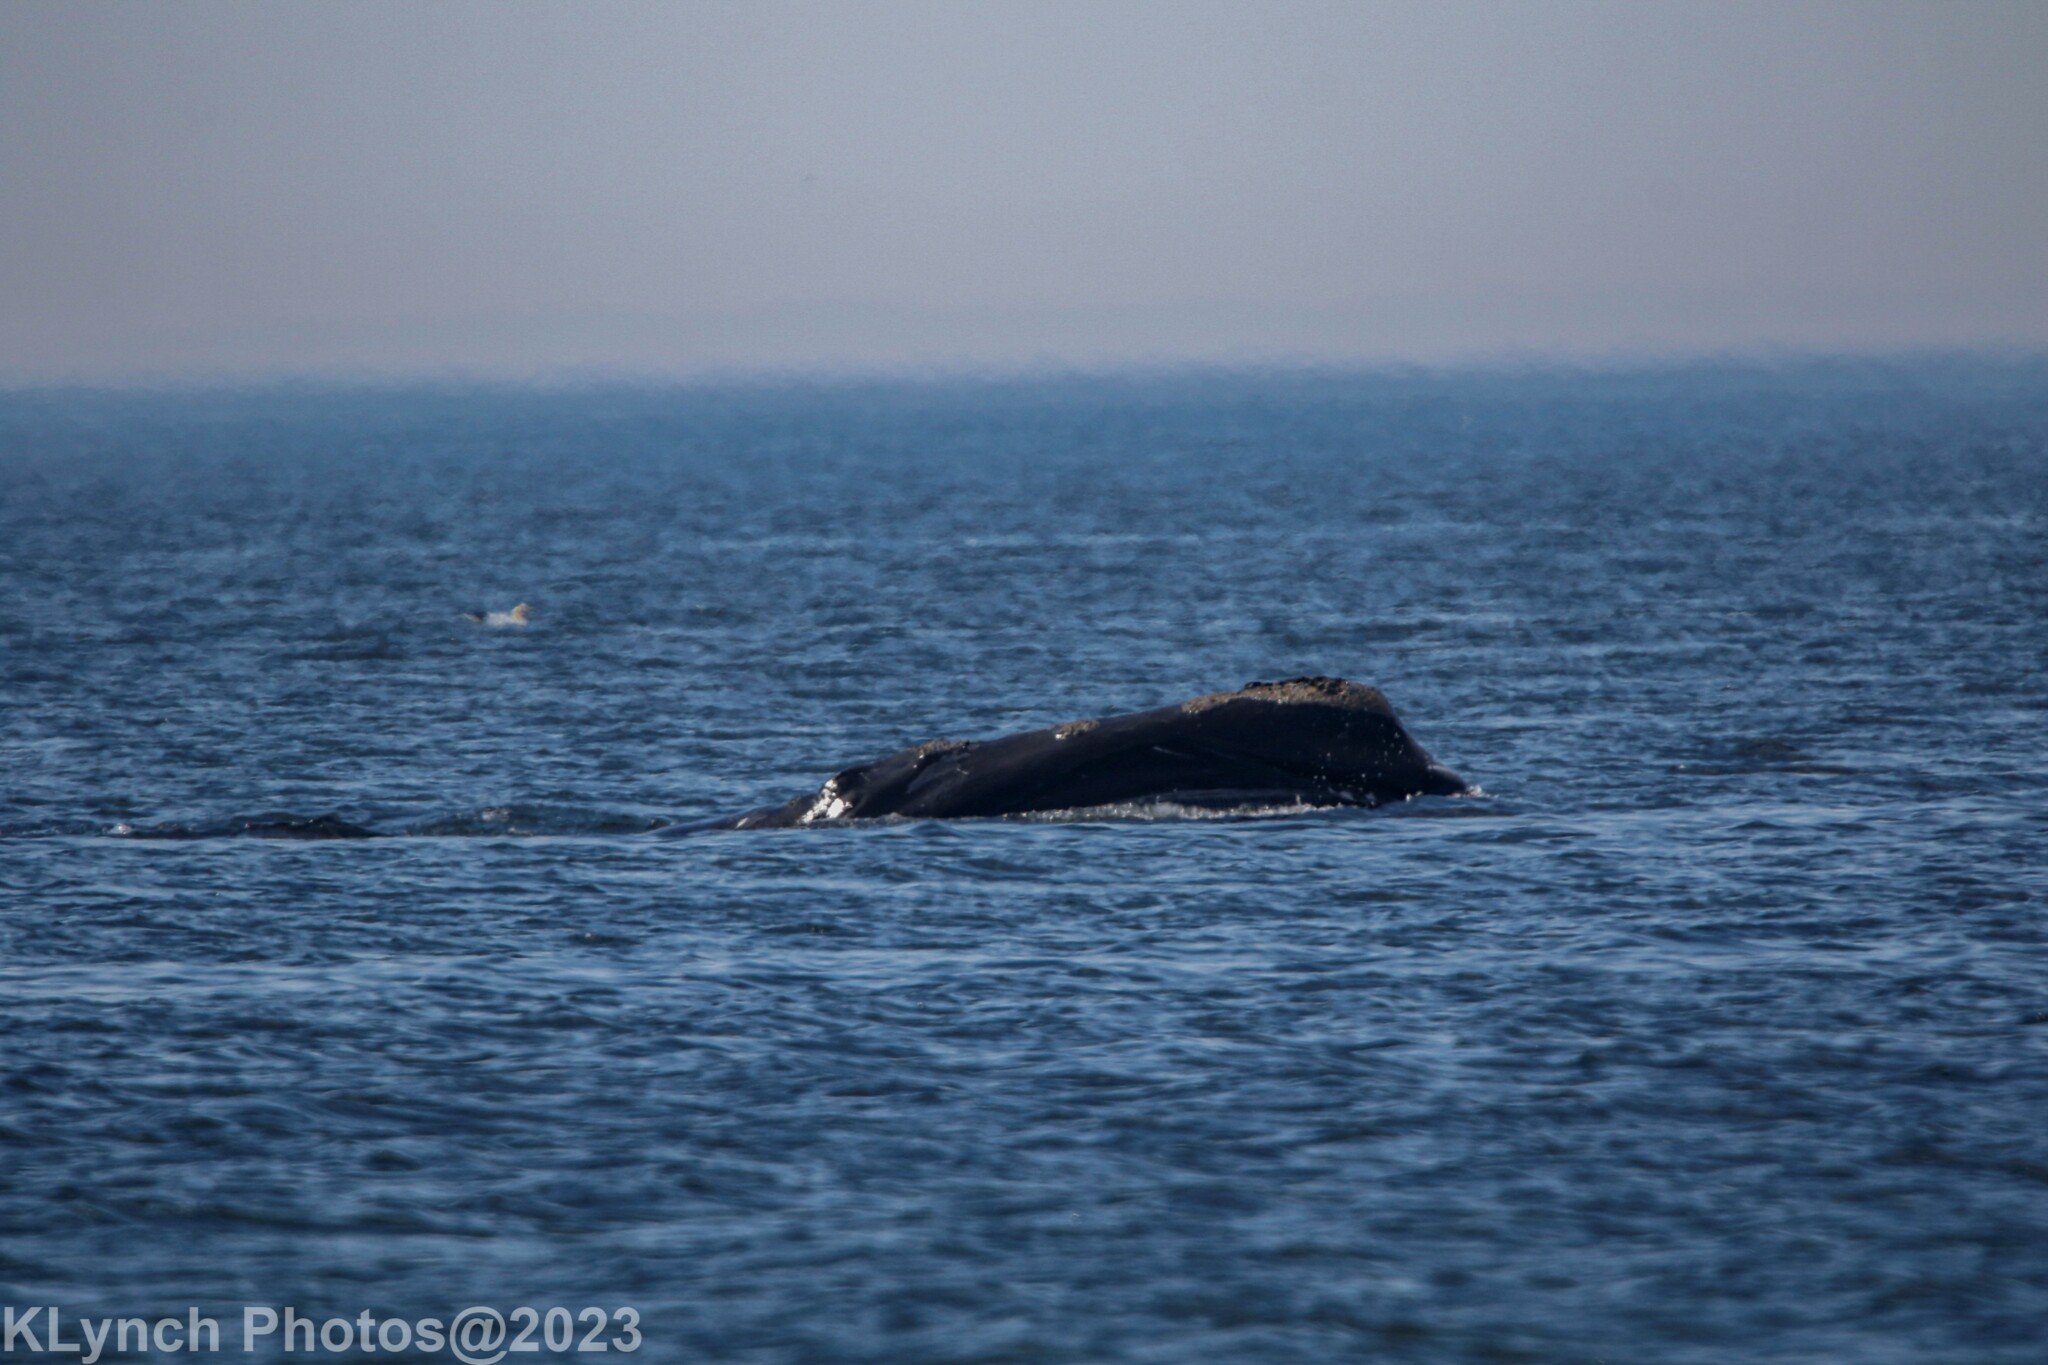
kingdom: Animalia
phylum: Chordata
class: Mammalia
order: Cetacea
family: Balaenidae
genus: Eubalaena
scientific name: Eubalaena glacialis
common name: North atlantic right whale
